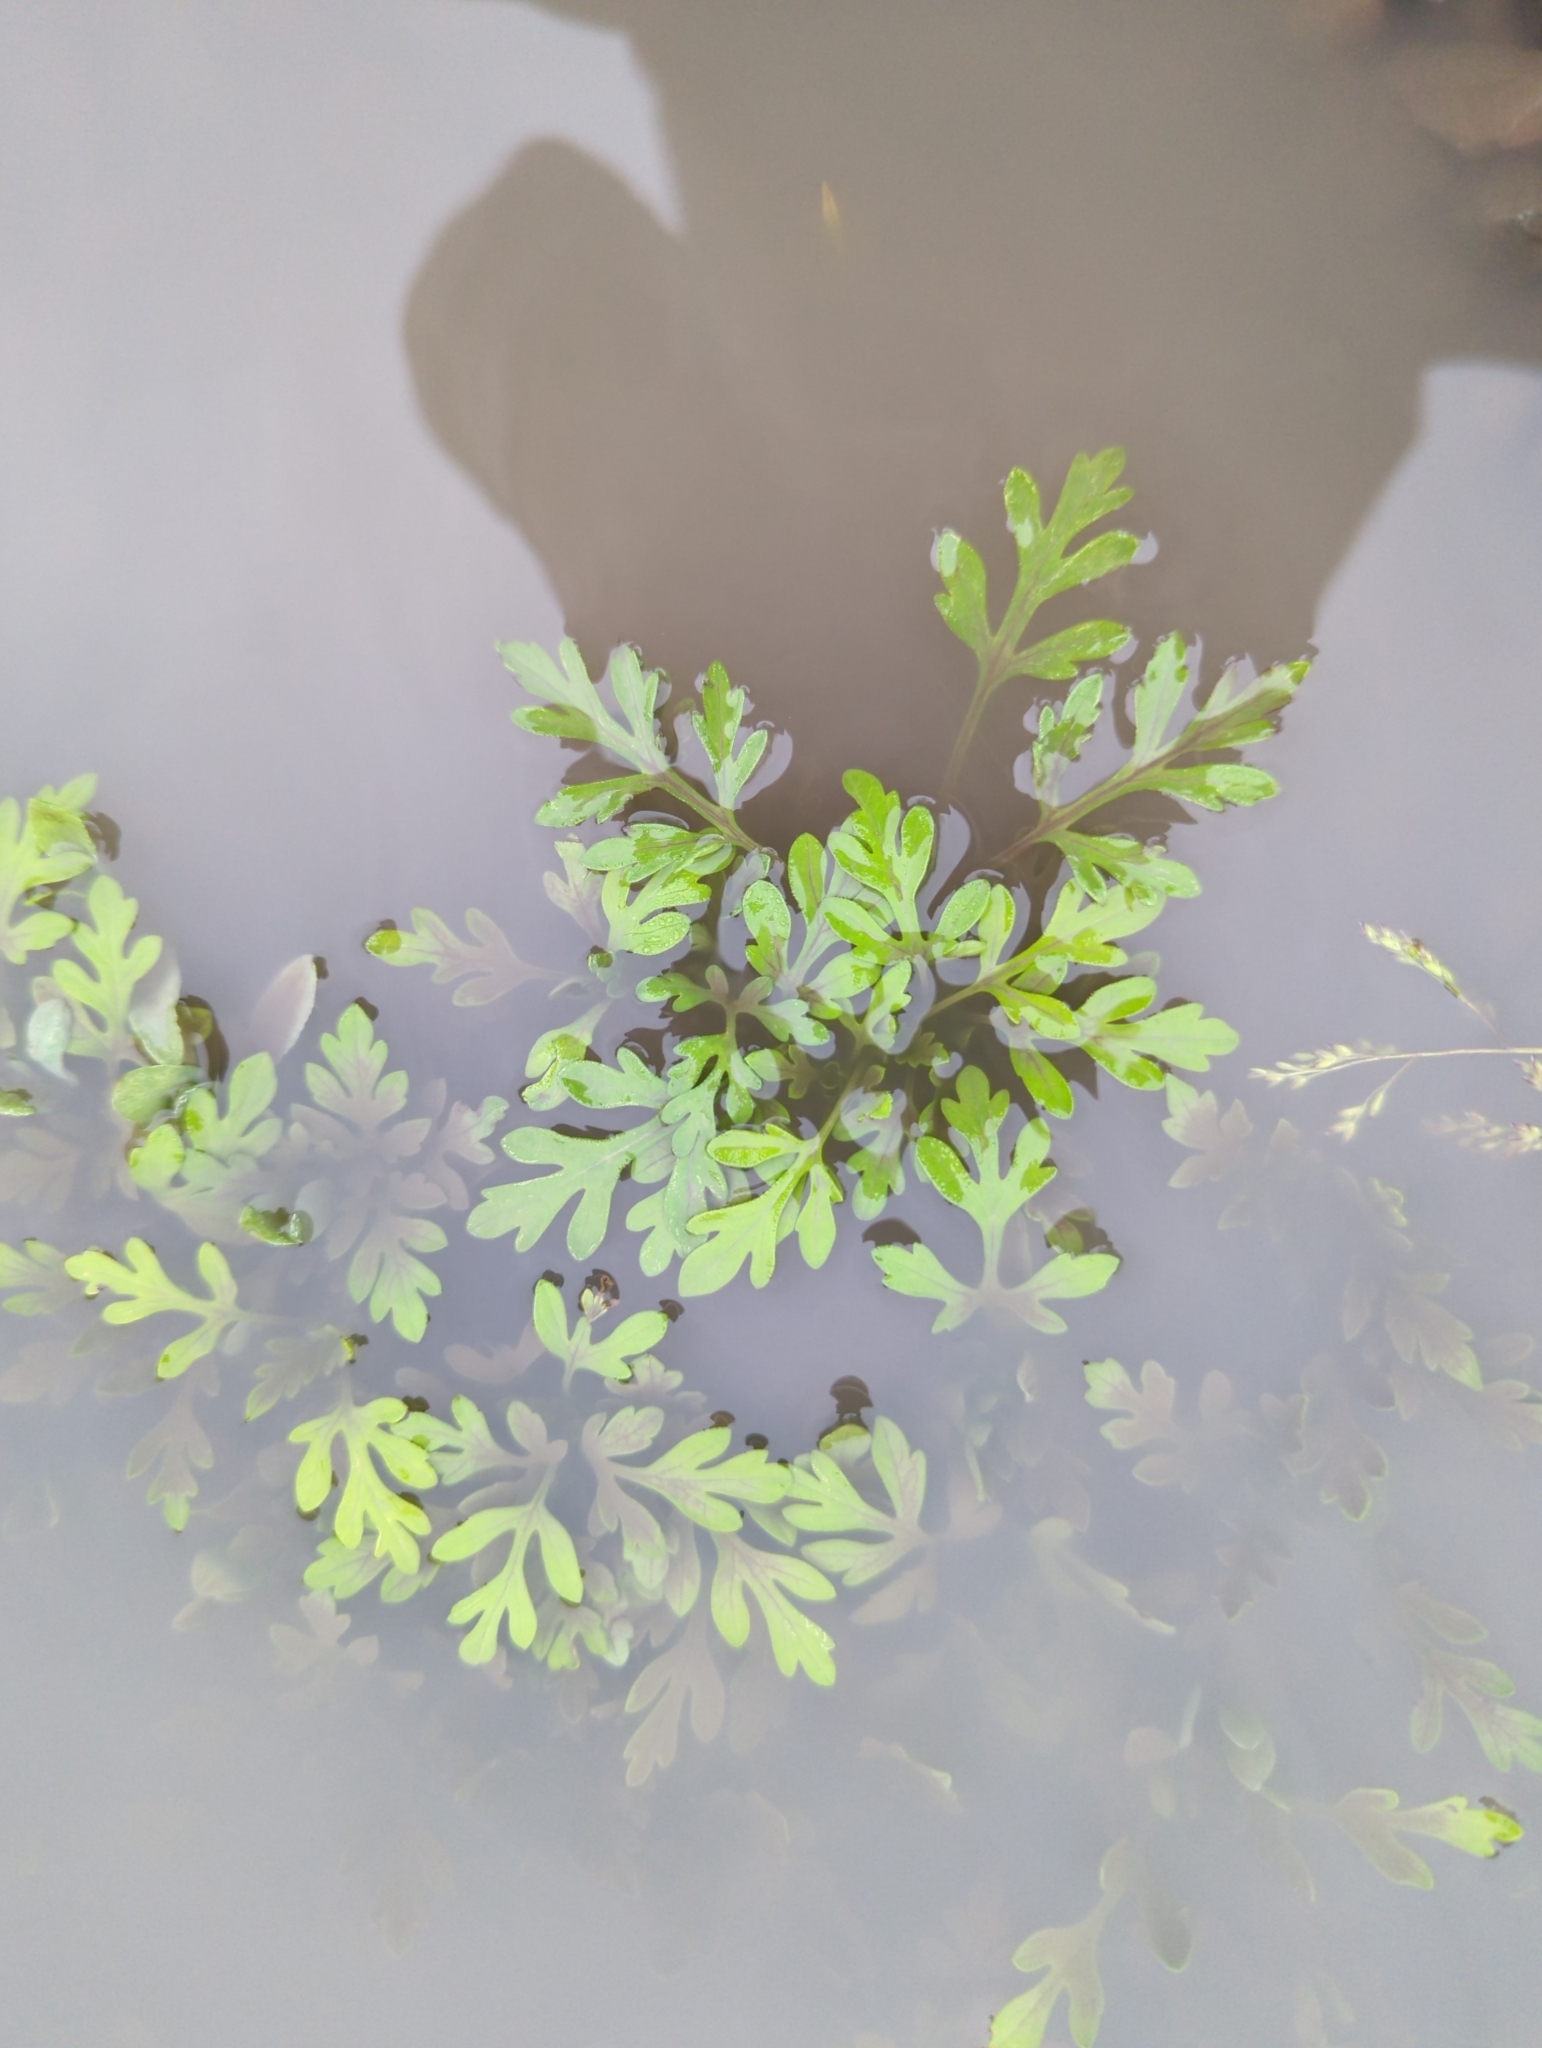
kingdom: Plantae
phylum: Tracheophyta
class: Magnoliopsida
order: Asterales
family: Asteraceae
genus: Ambrosia
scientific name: Ambrosia artemisiifolia
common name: Annual ragweed
